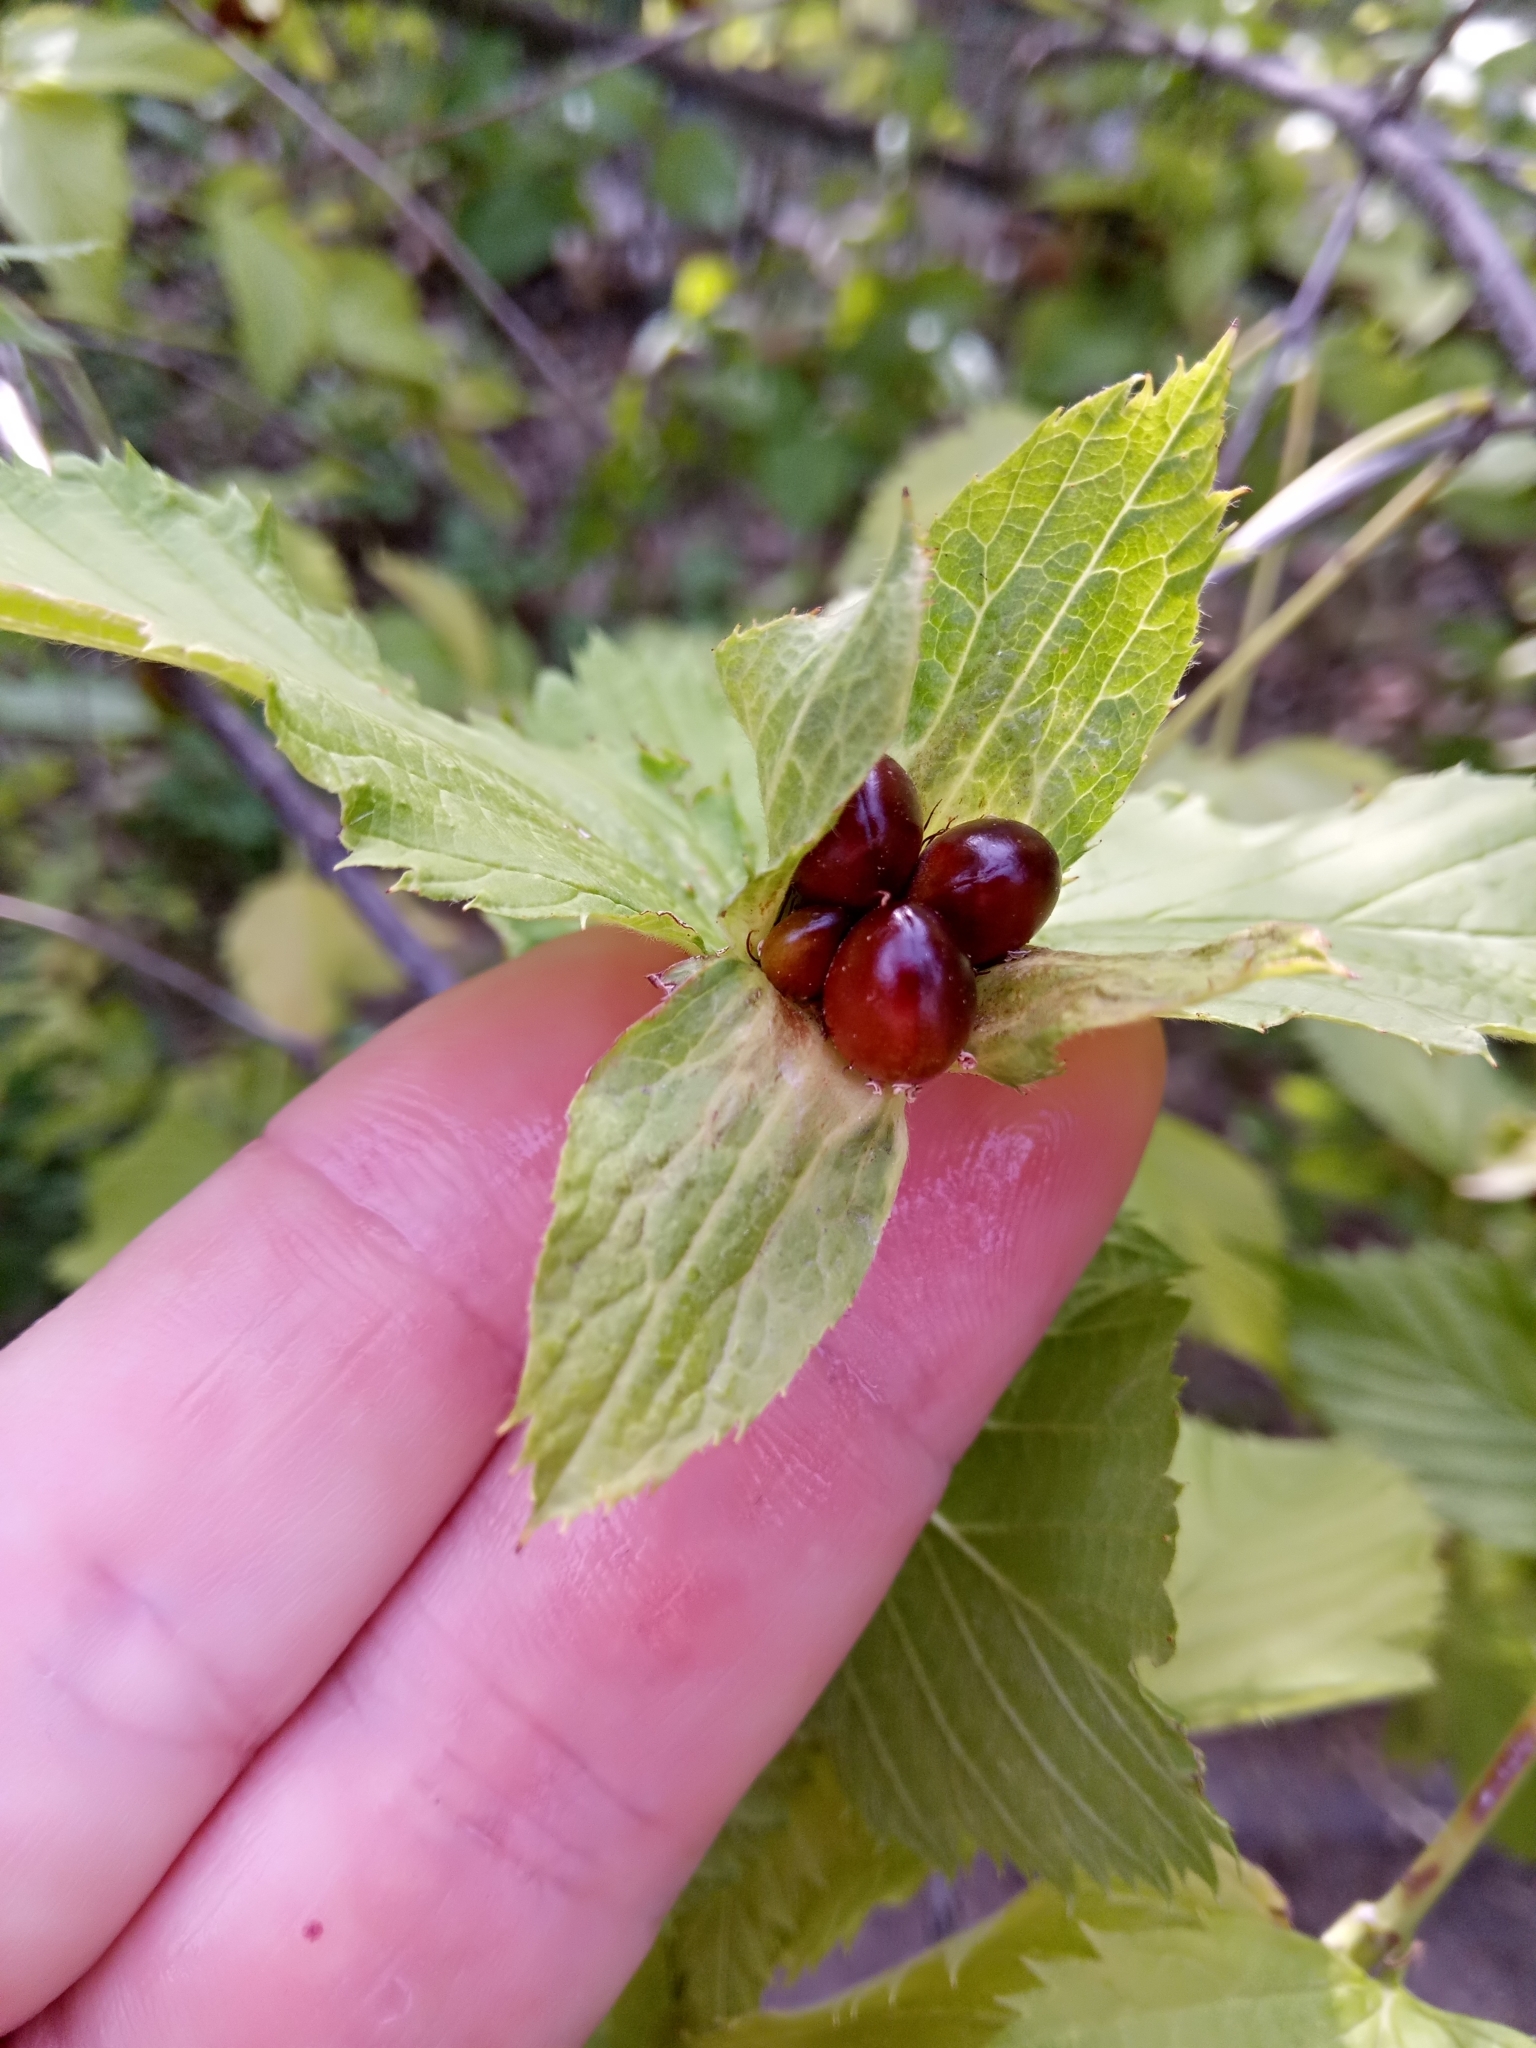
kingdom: Plantae
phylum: Tracheophyta
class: Magnoliopsida
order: Rosales
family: Rosaceae
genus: Rhodotypos
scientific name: Rhodotypos scandens
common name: Jetbead
